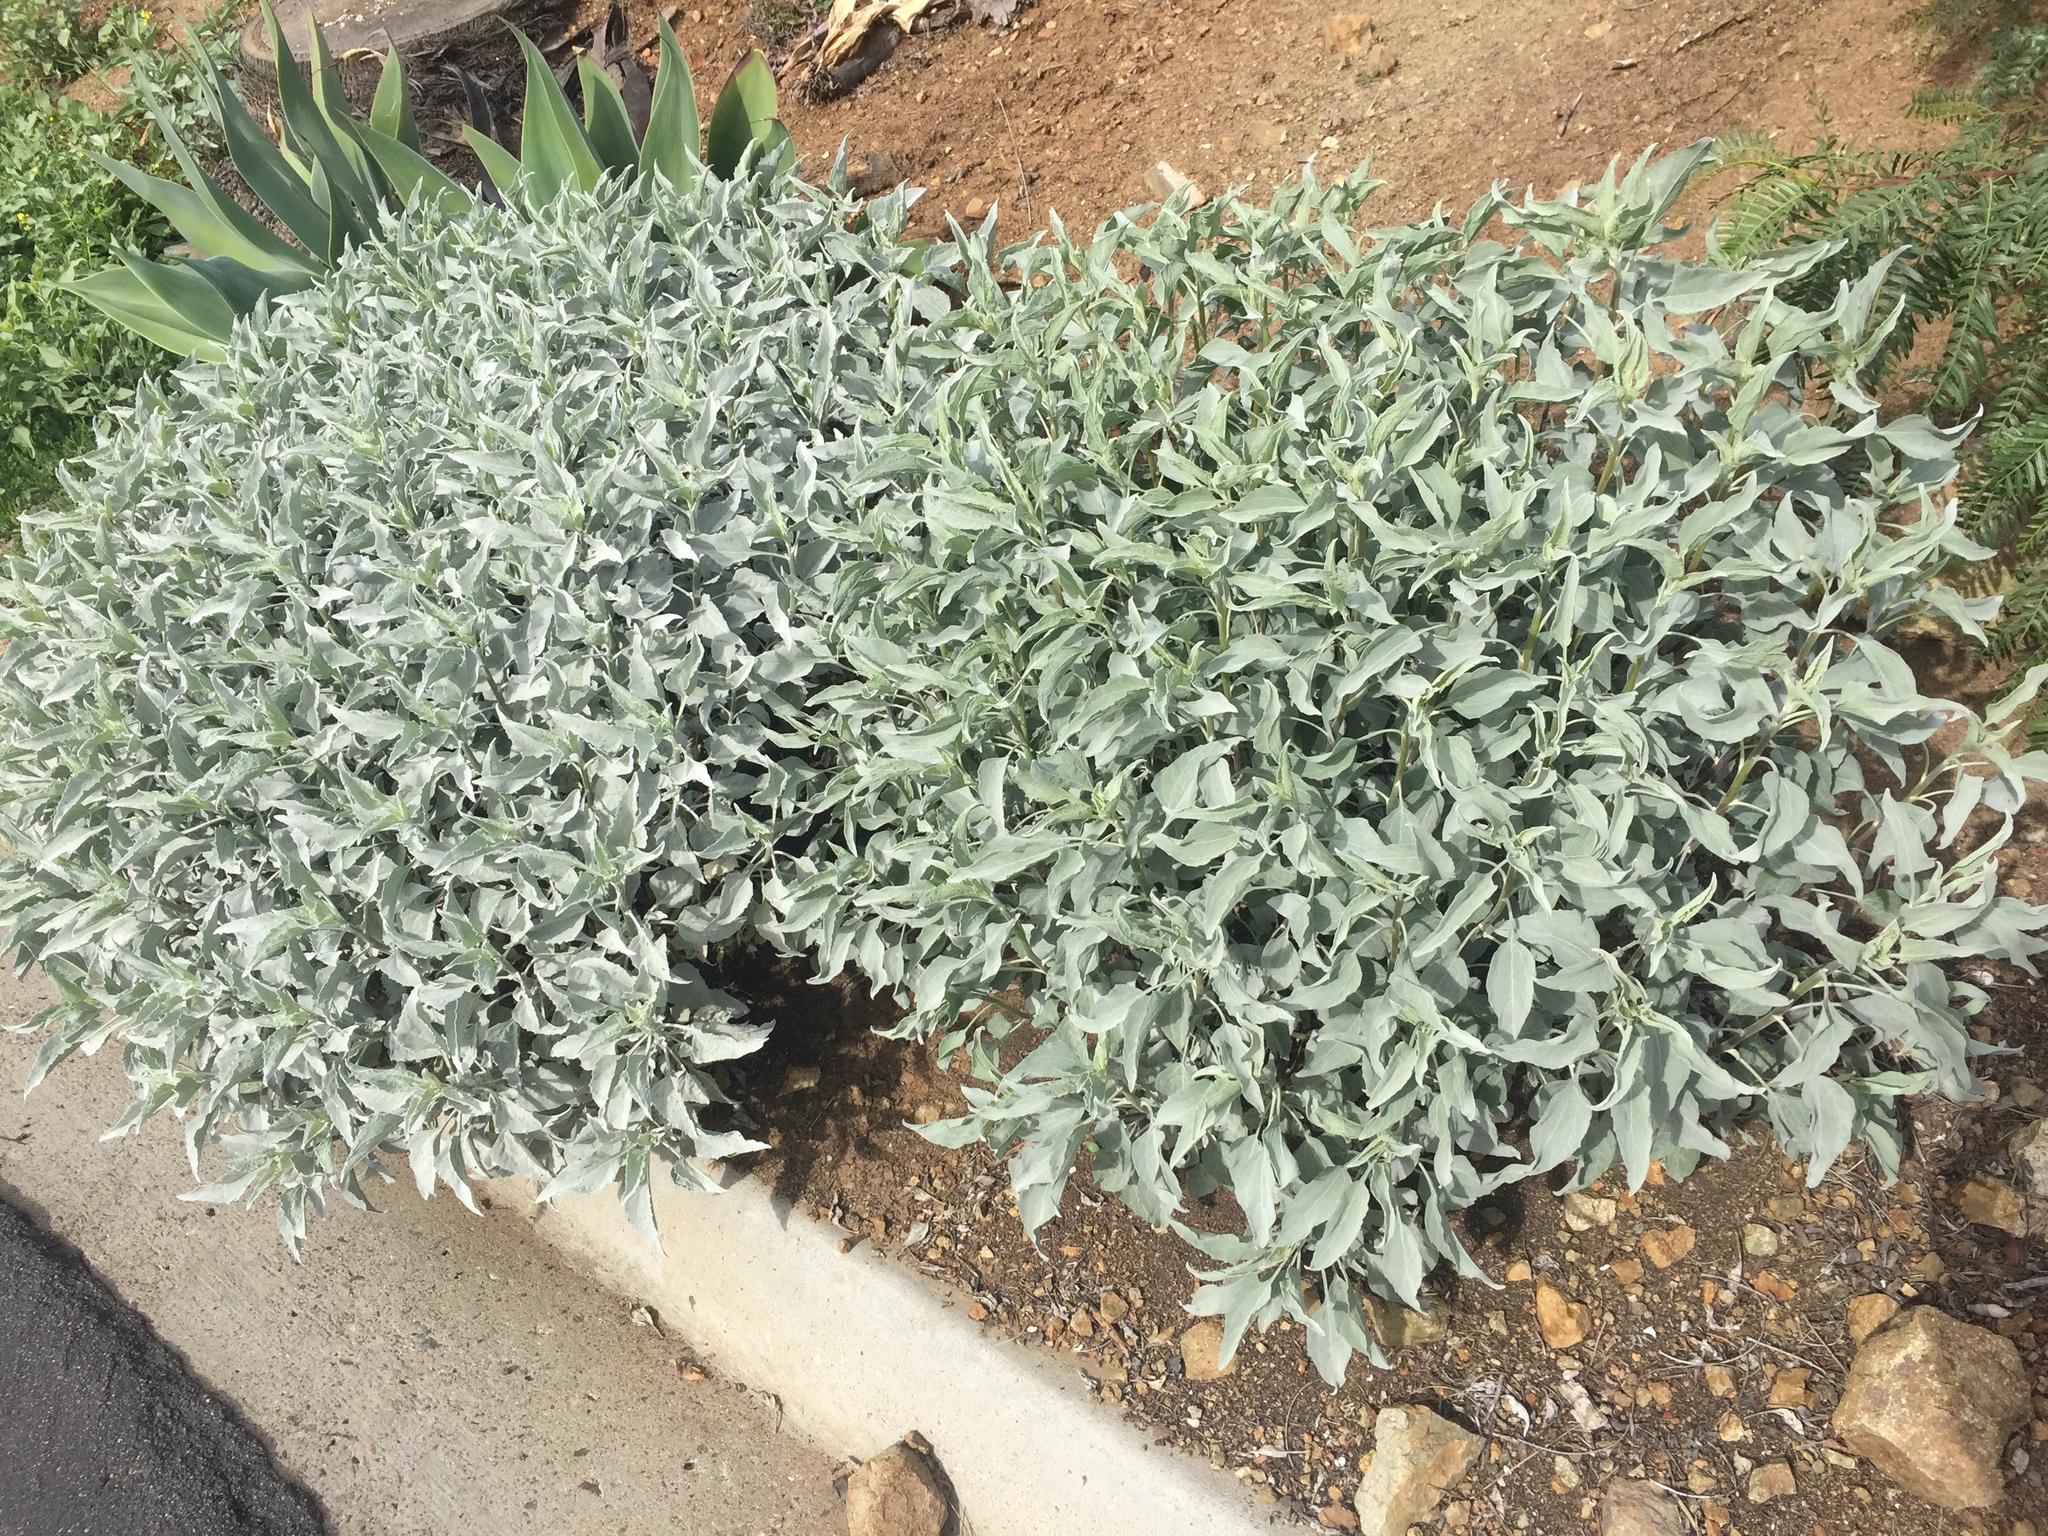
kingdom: Plantae
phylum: Tracheophyta
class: Magnoliopsida
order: Asterales
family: Asteraceae
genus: Encelia
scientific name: Encelia farinosa
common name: Brittlebush
